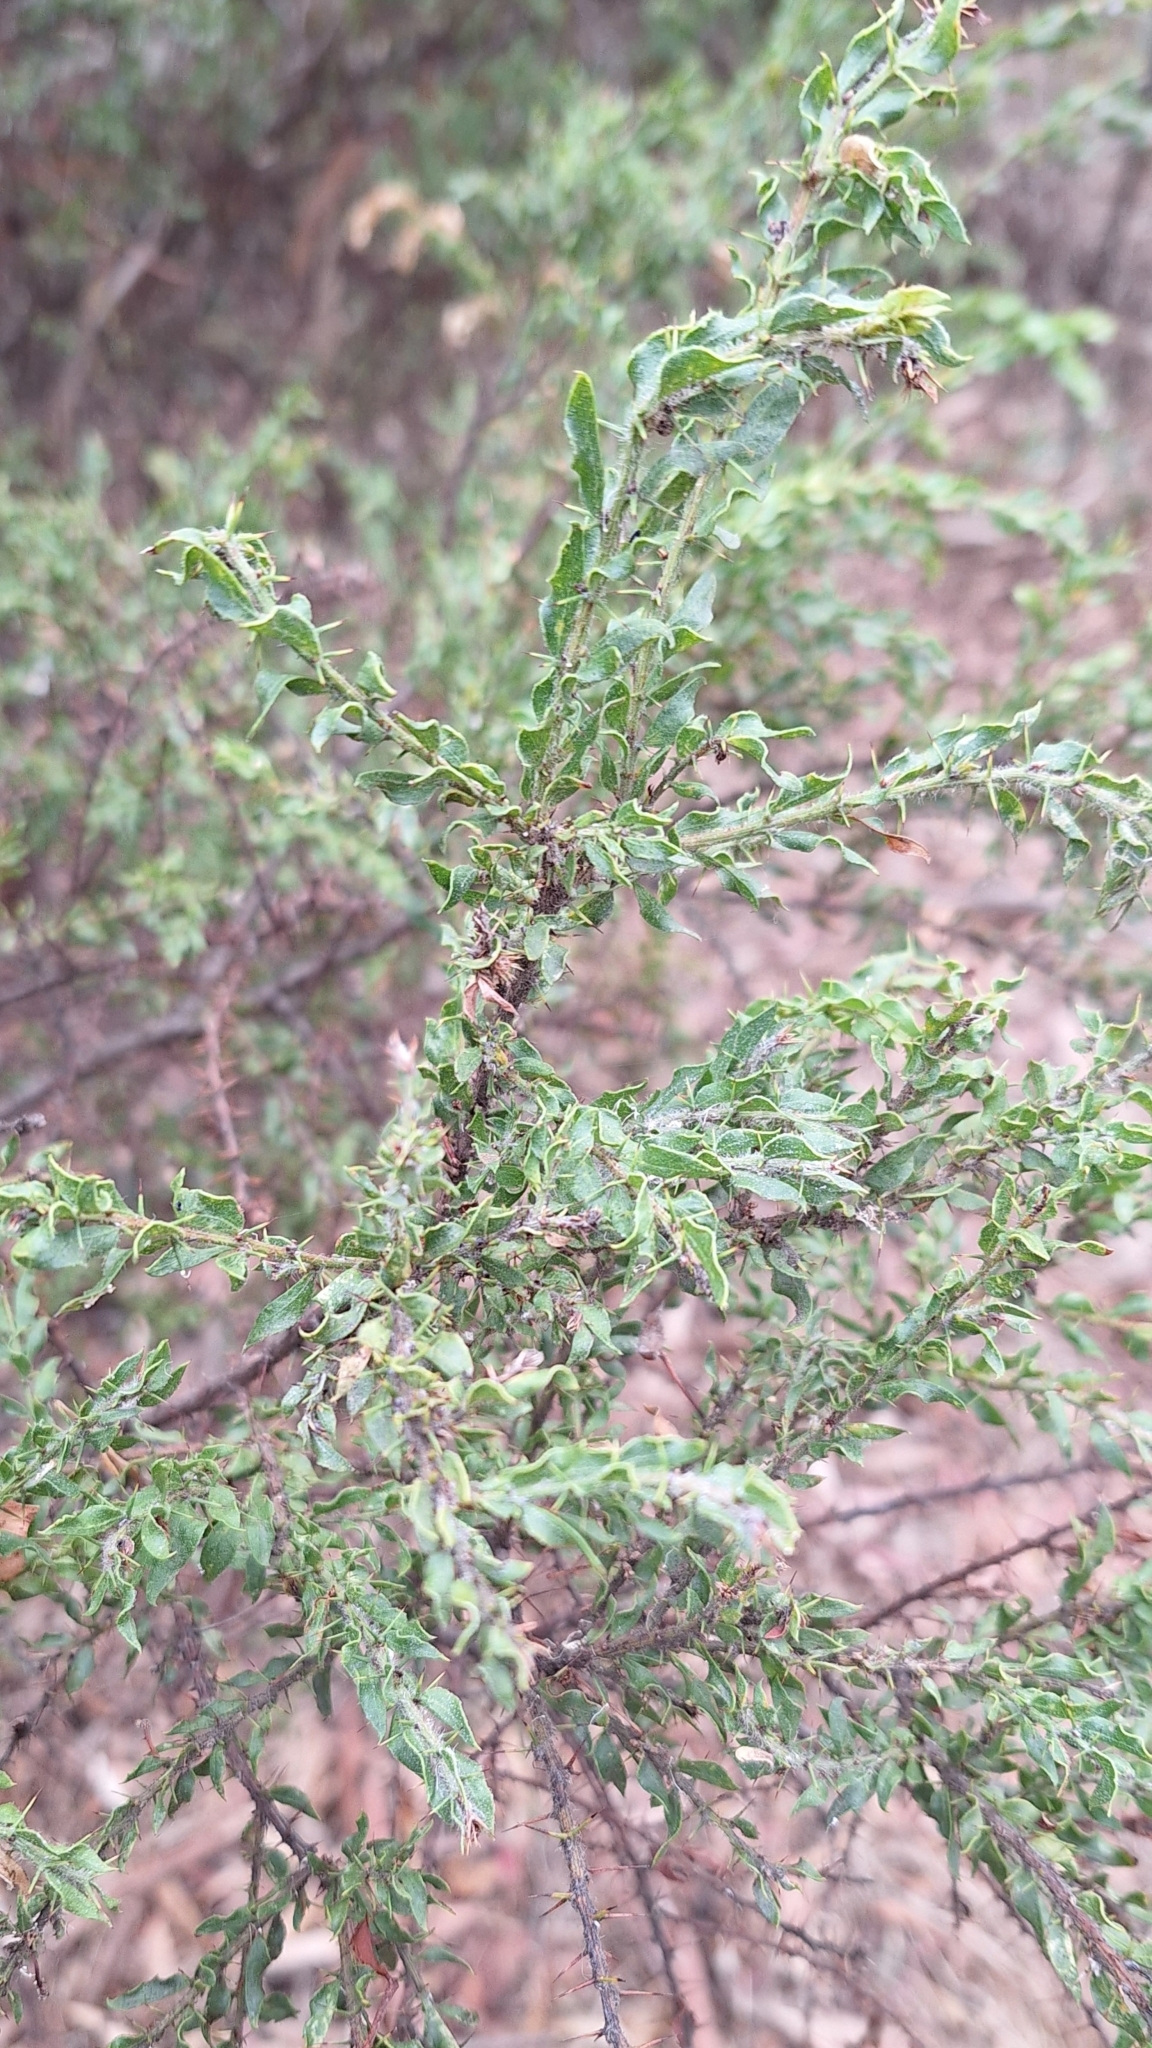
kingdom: Plantae
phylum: Tracheophyta
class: Magnoliopsida
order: Fabales
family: Fabaceae
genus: Acacia
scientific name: Acacia paradoxa
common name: Paradox acacia
